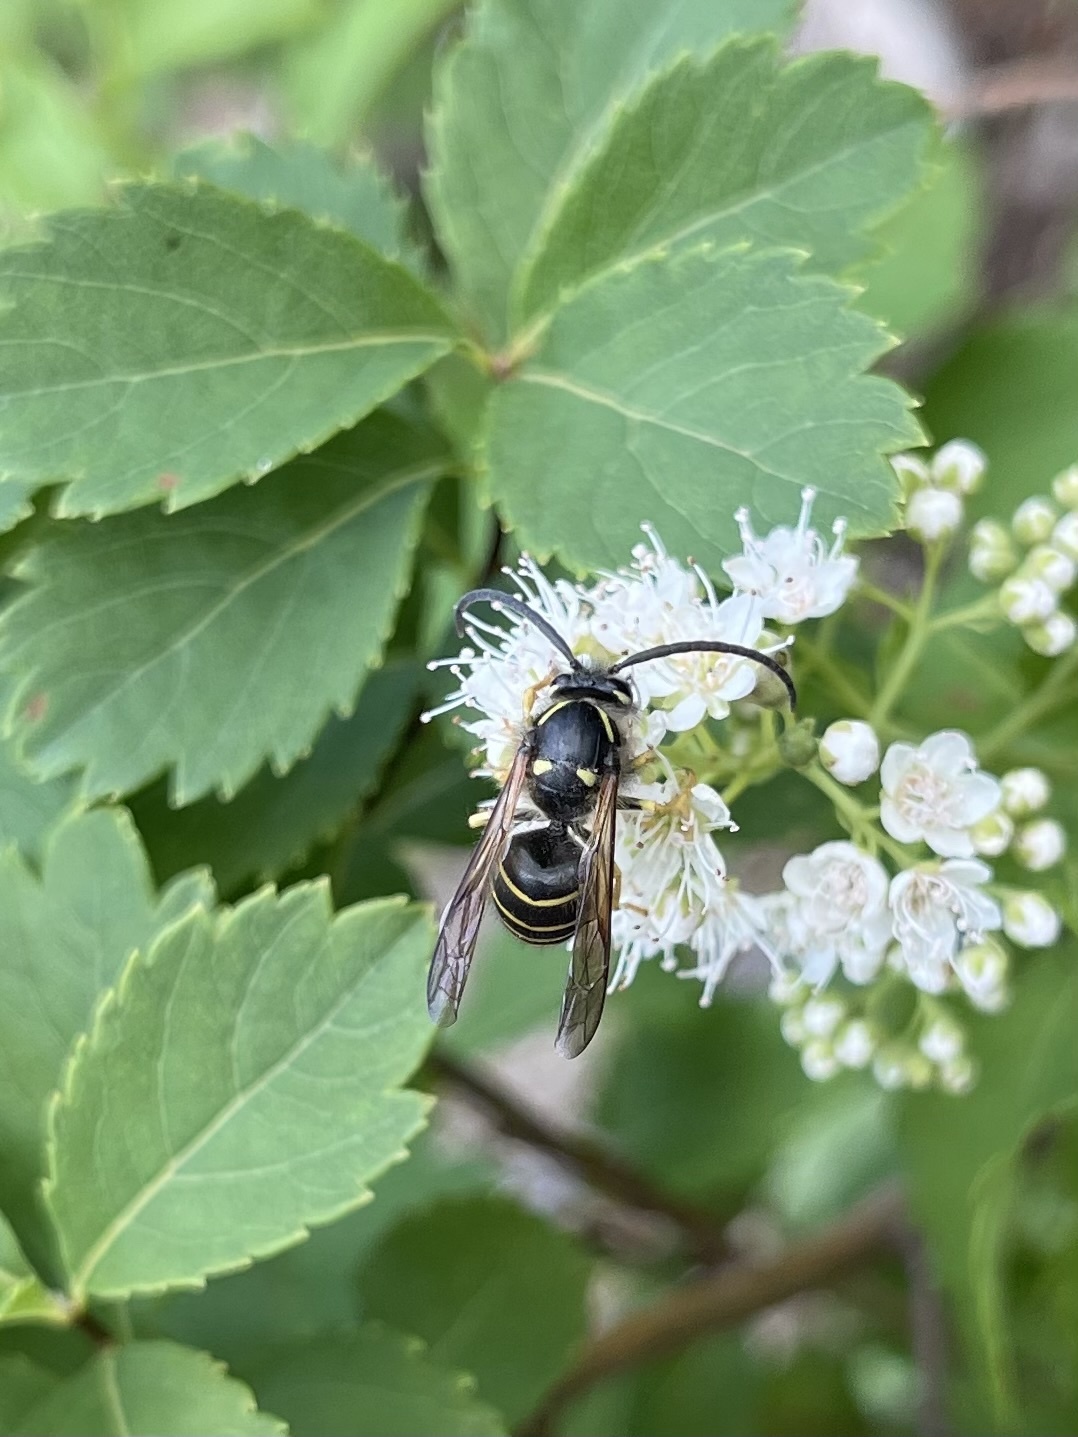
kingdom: Animalia
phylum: Arthropoda
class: Insecta
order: Hymenoptera
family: Vespidae
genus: Dolichovespula
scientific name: Dolichovespula norvegicoides
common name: Northern aerial yellowjacket
